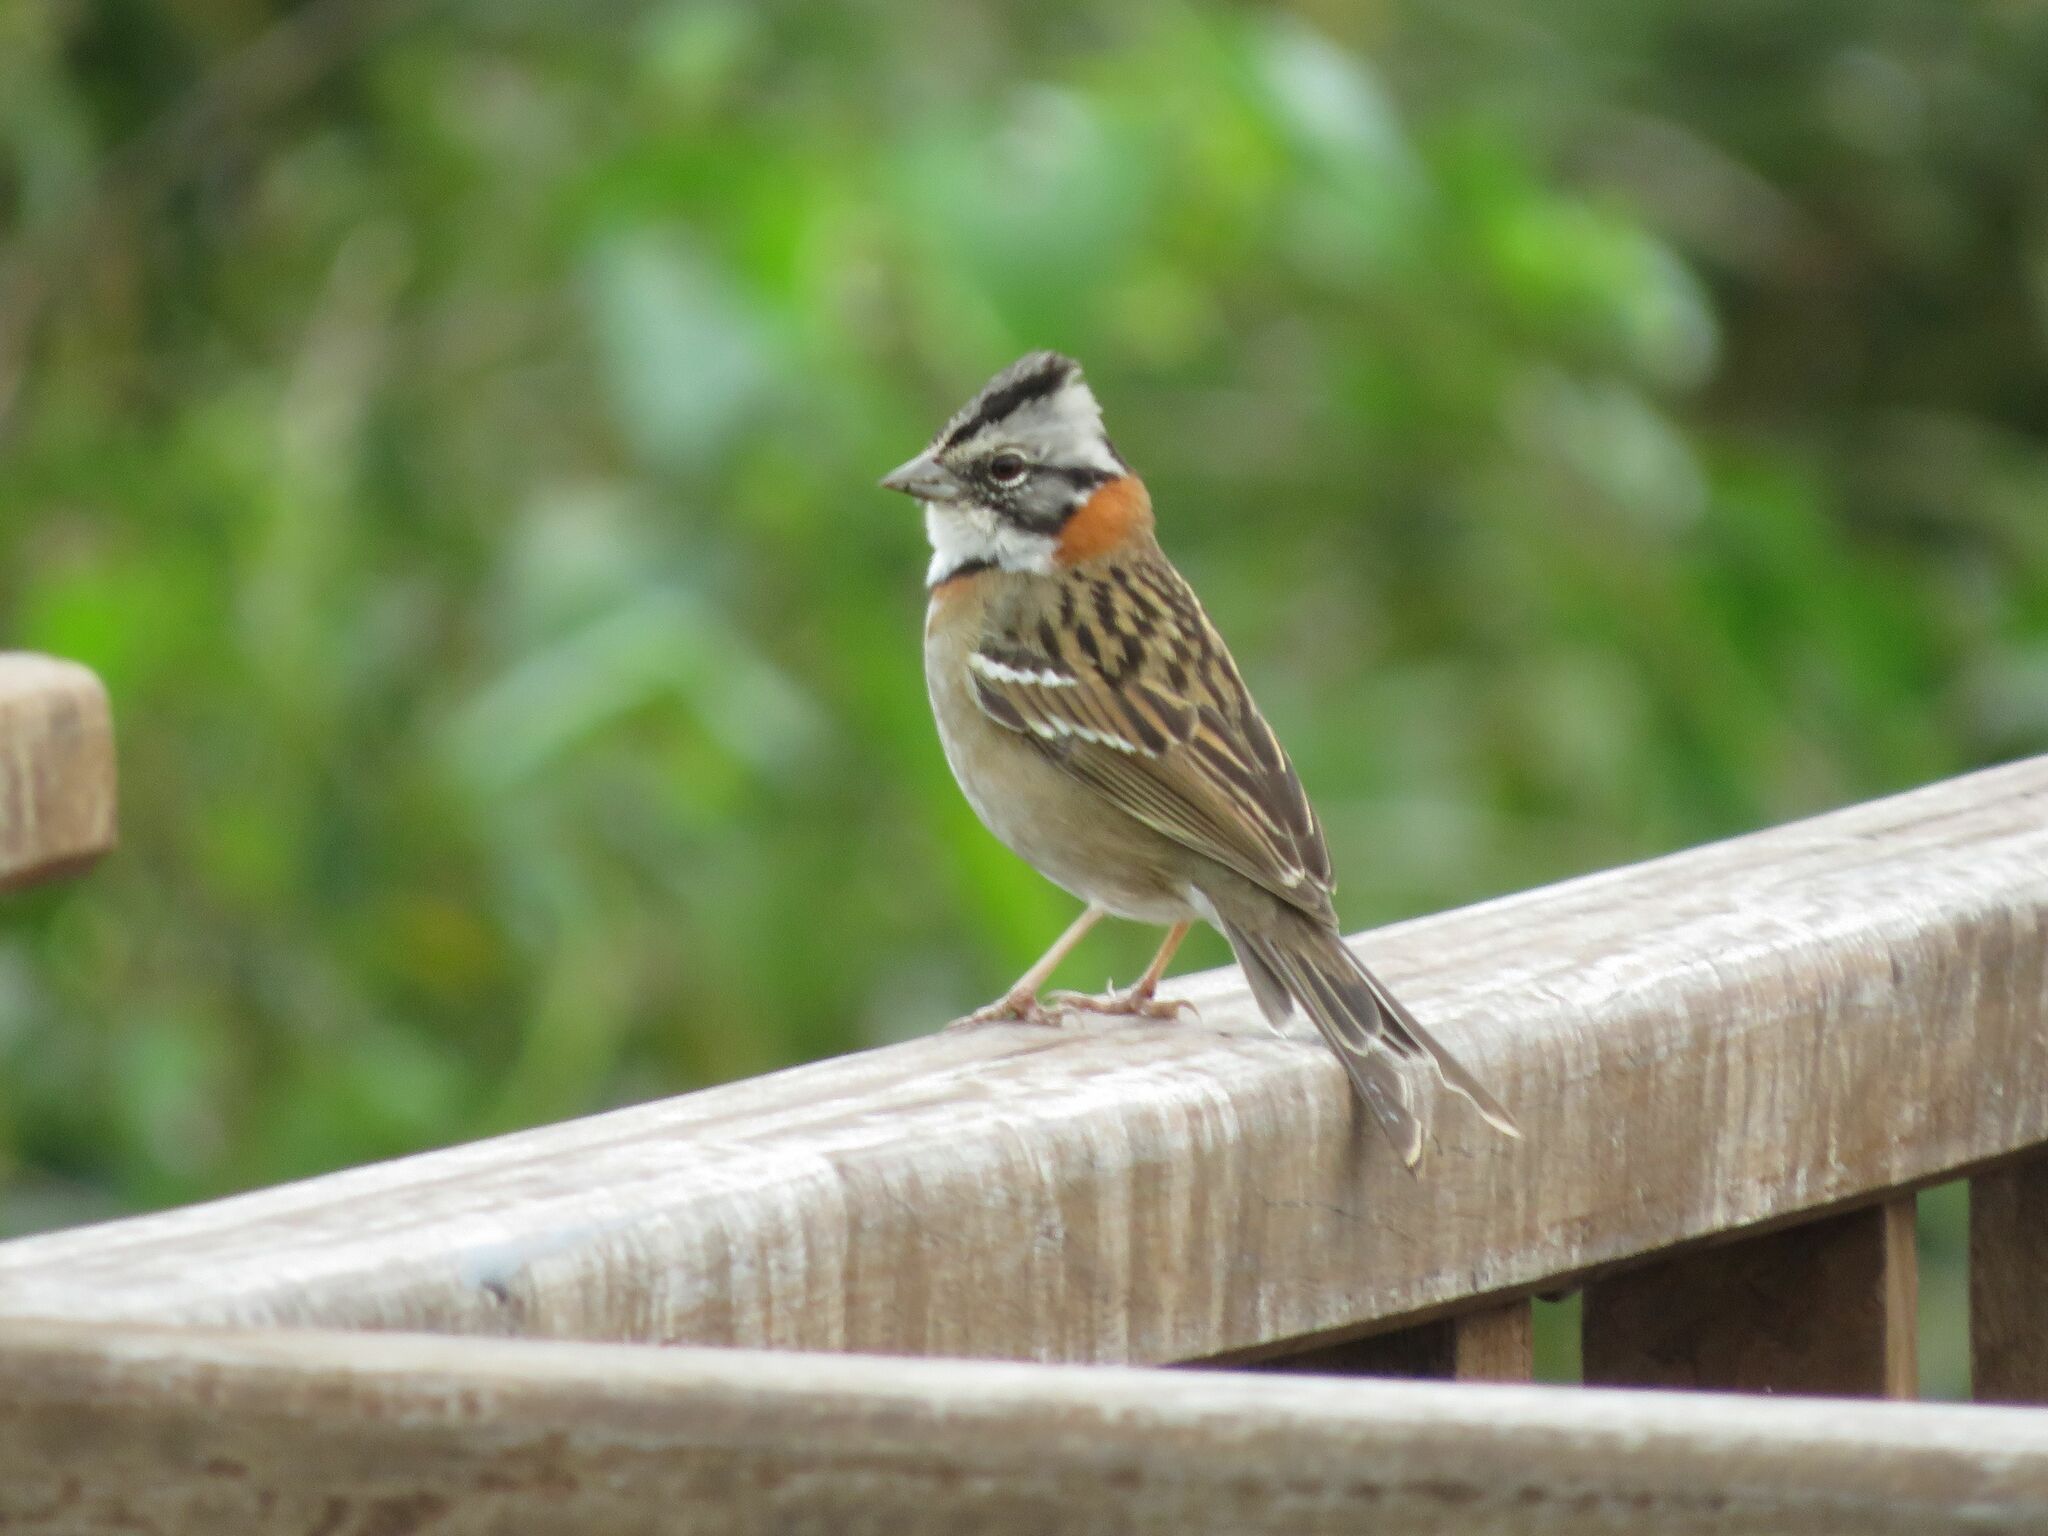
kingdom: Animalia
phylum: Chordata
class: Aves
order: Passeriformes
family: Passerellidae
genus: Zonotrichia
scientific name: Zonotrichia capensis
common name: Rufous-collared sparrow
